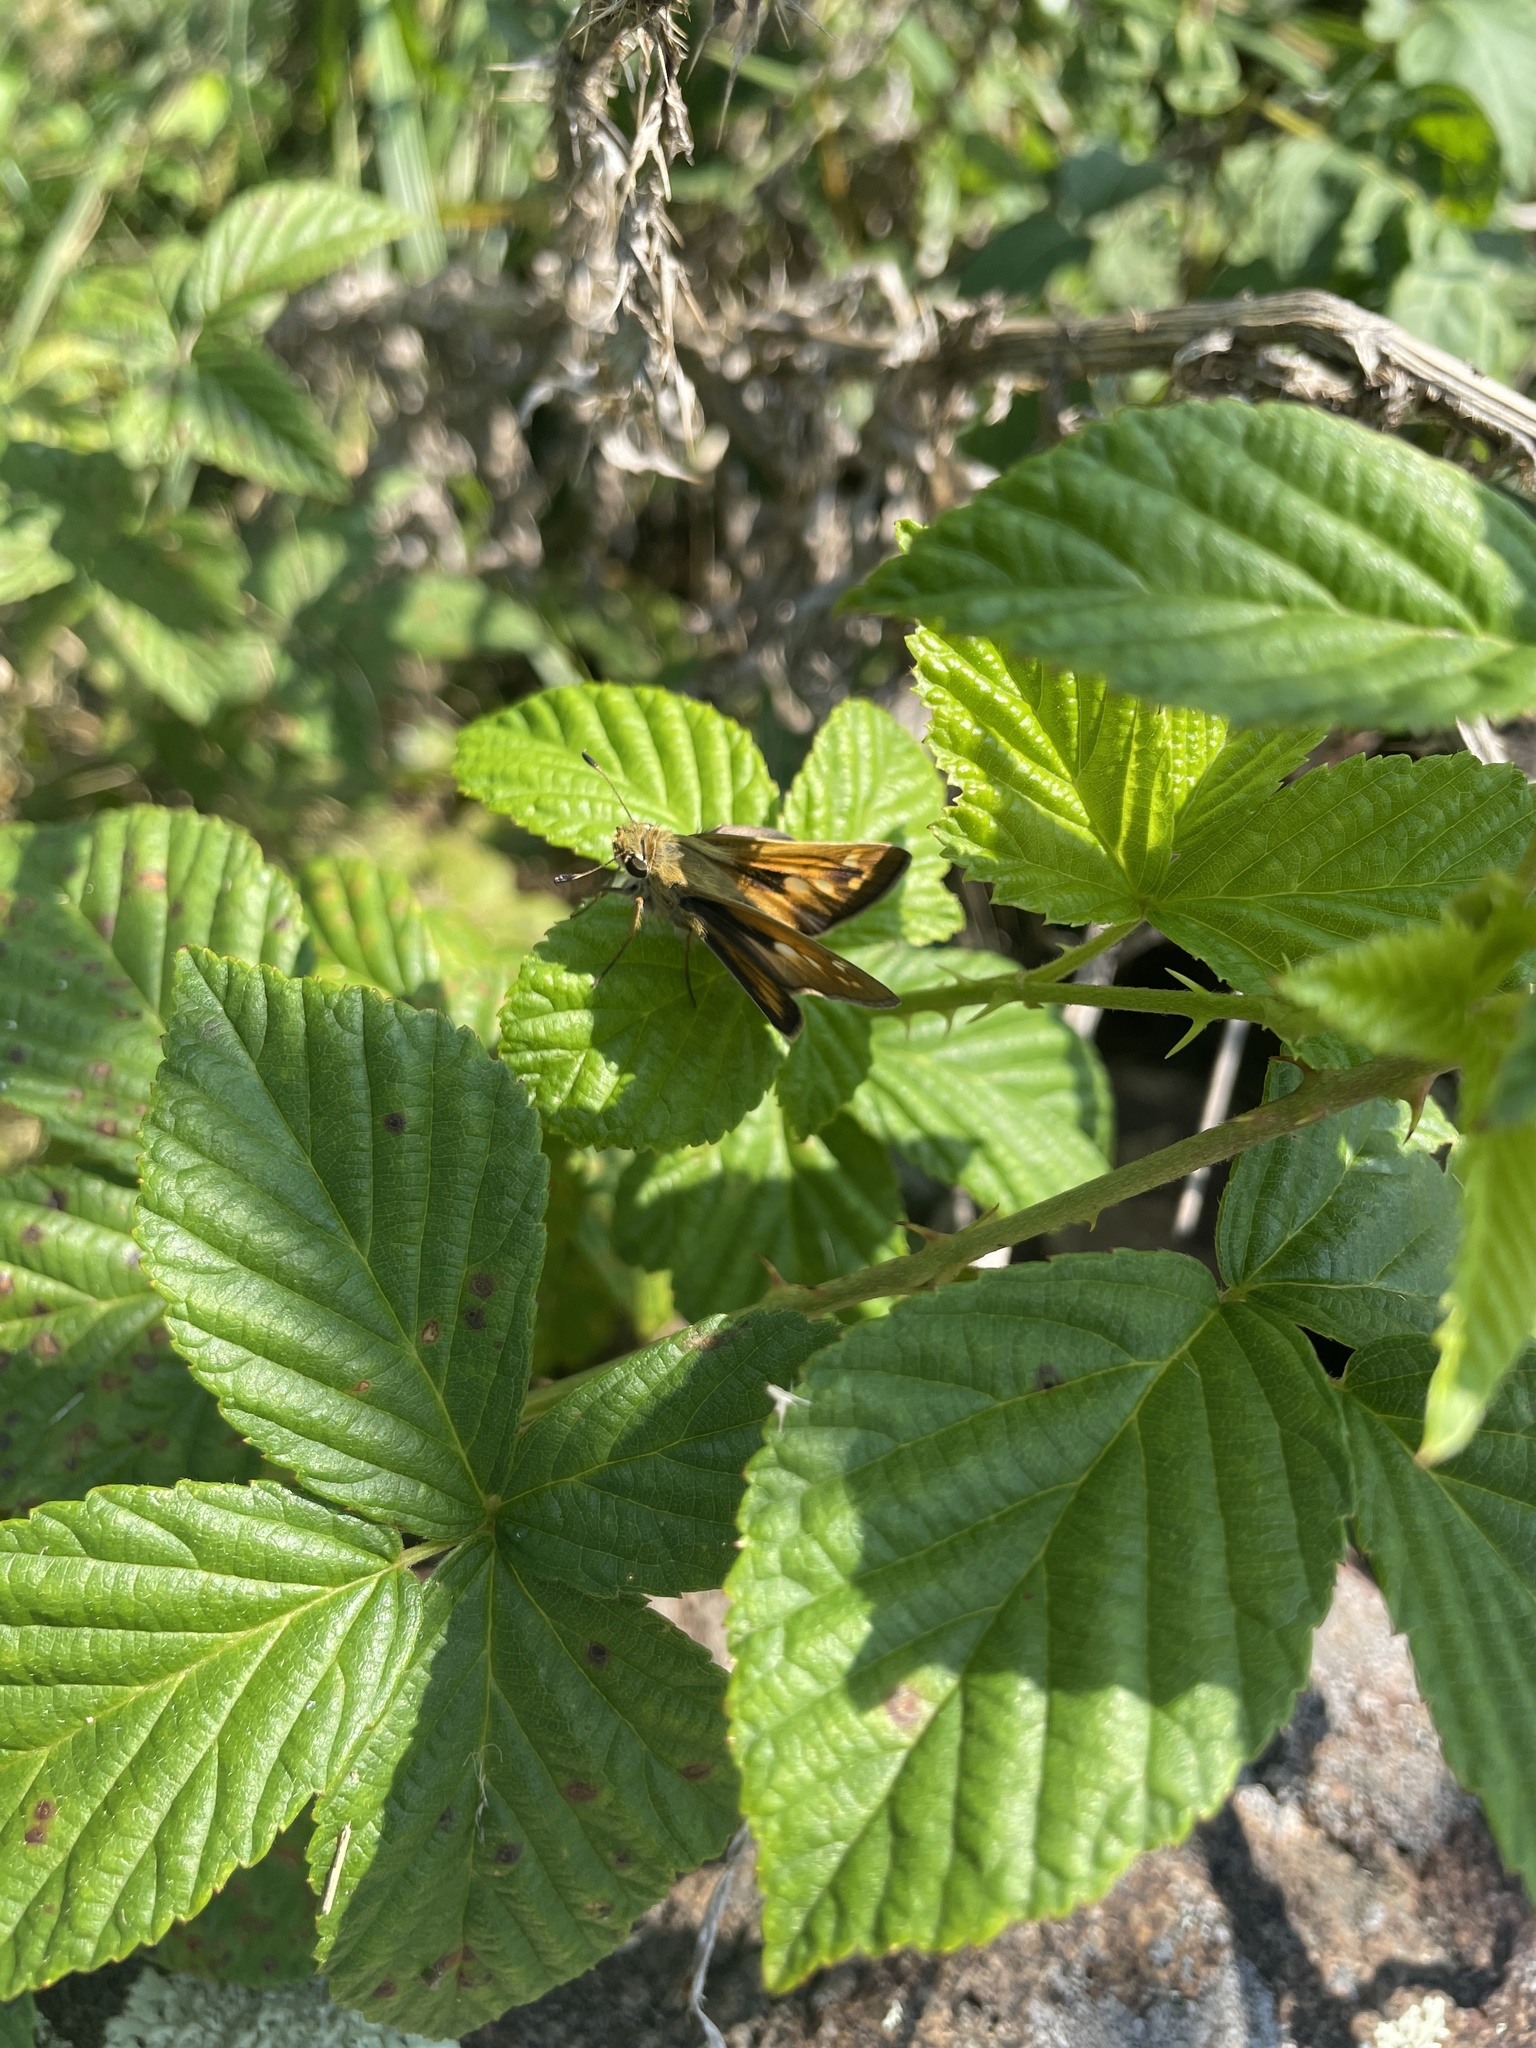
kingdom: Animalia
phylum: Arthropoda
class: Insecta
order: Lepidoptera
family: Hesperiidae
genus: Atalopedes
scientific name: Atalopedes
